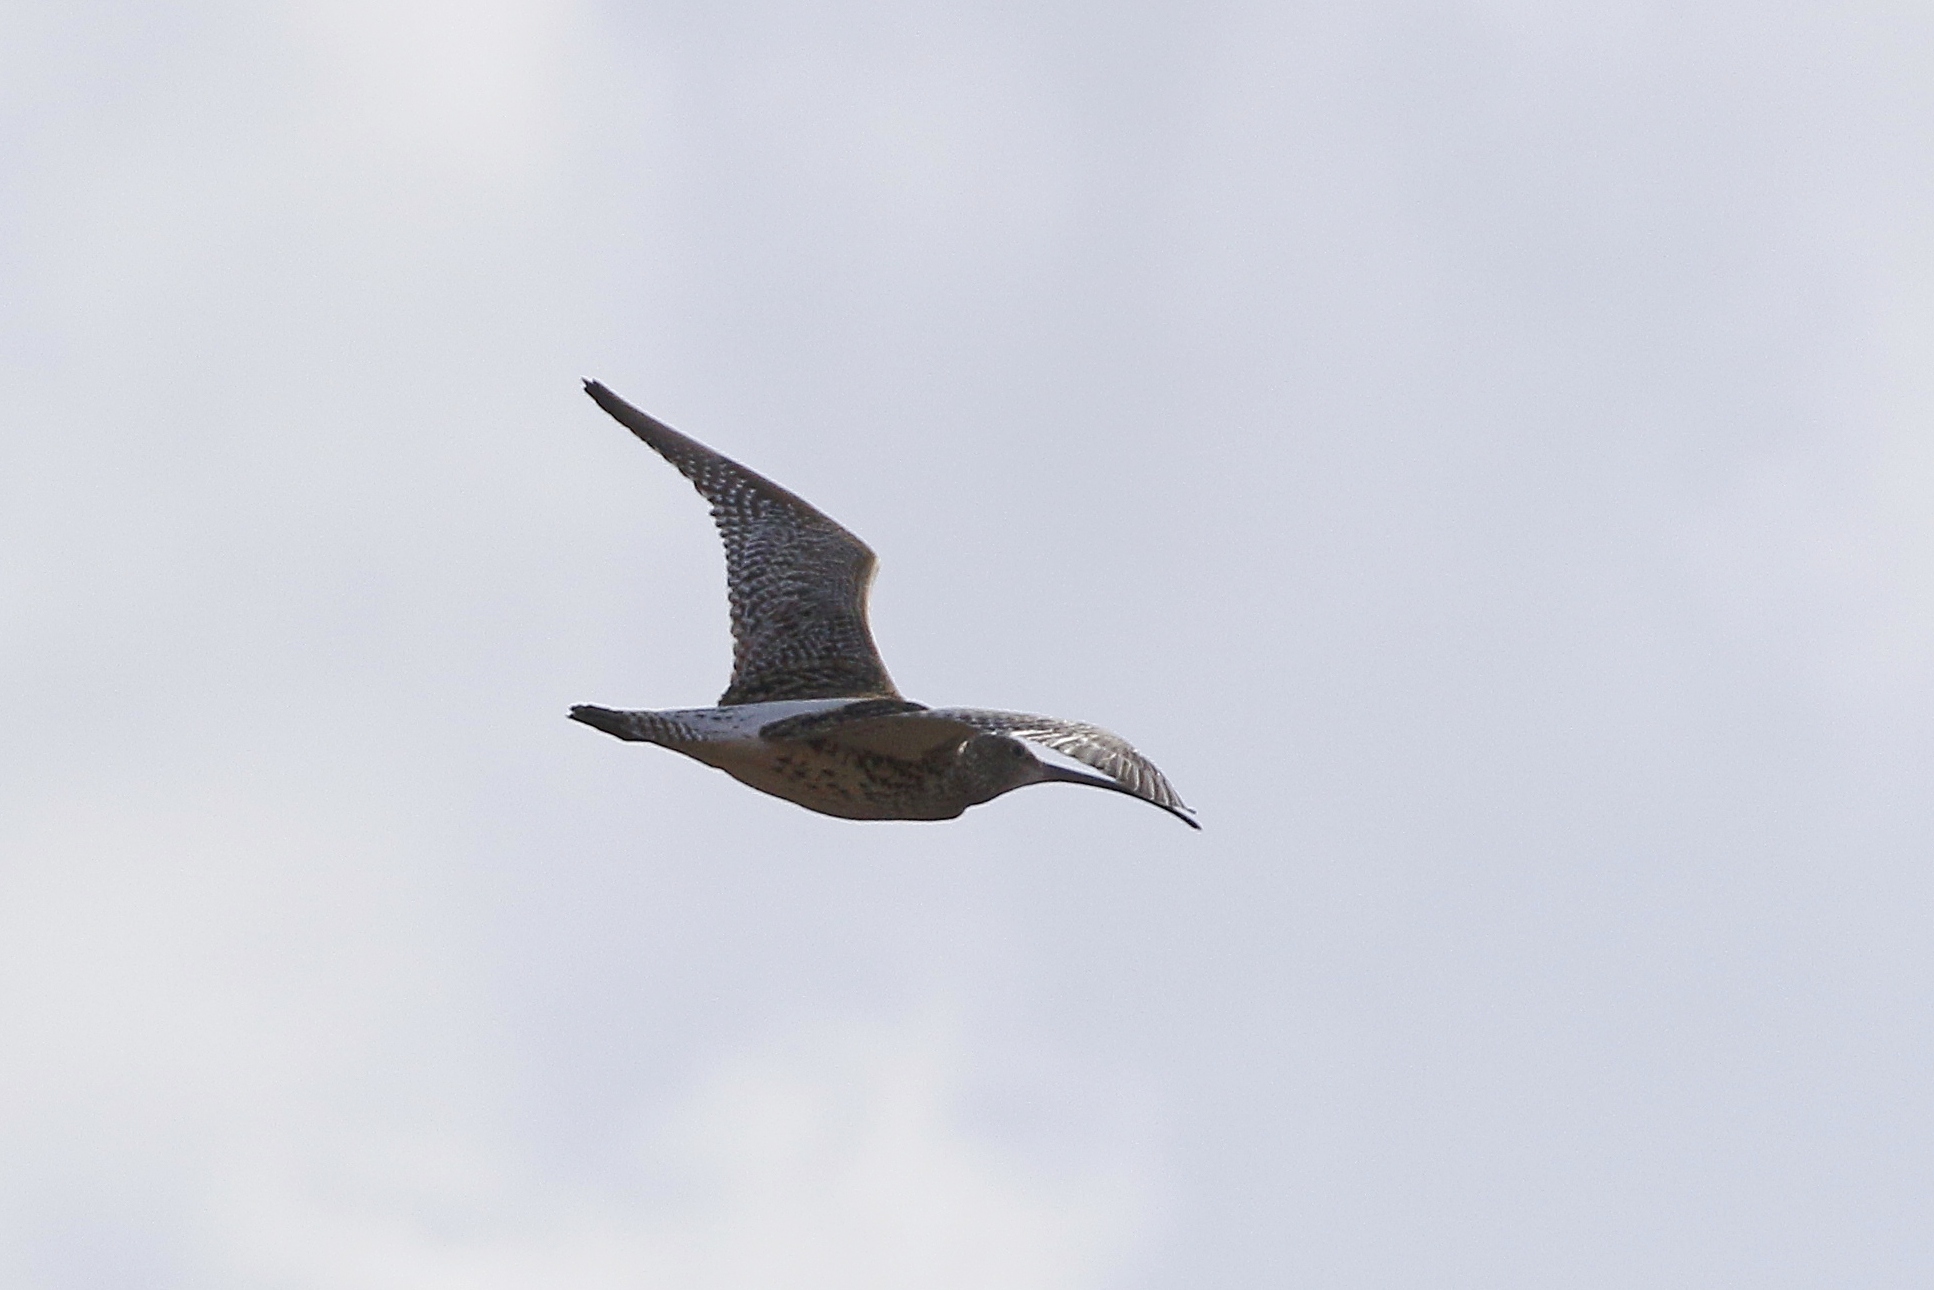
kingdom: Animalia
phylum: Chordata
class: Aves
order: Charadriiformes
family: Scolopacidae
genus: Numenius
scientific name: Numenius arquata
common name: Eurasian curlew
